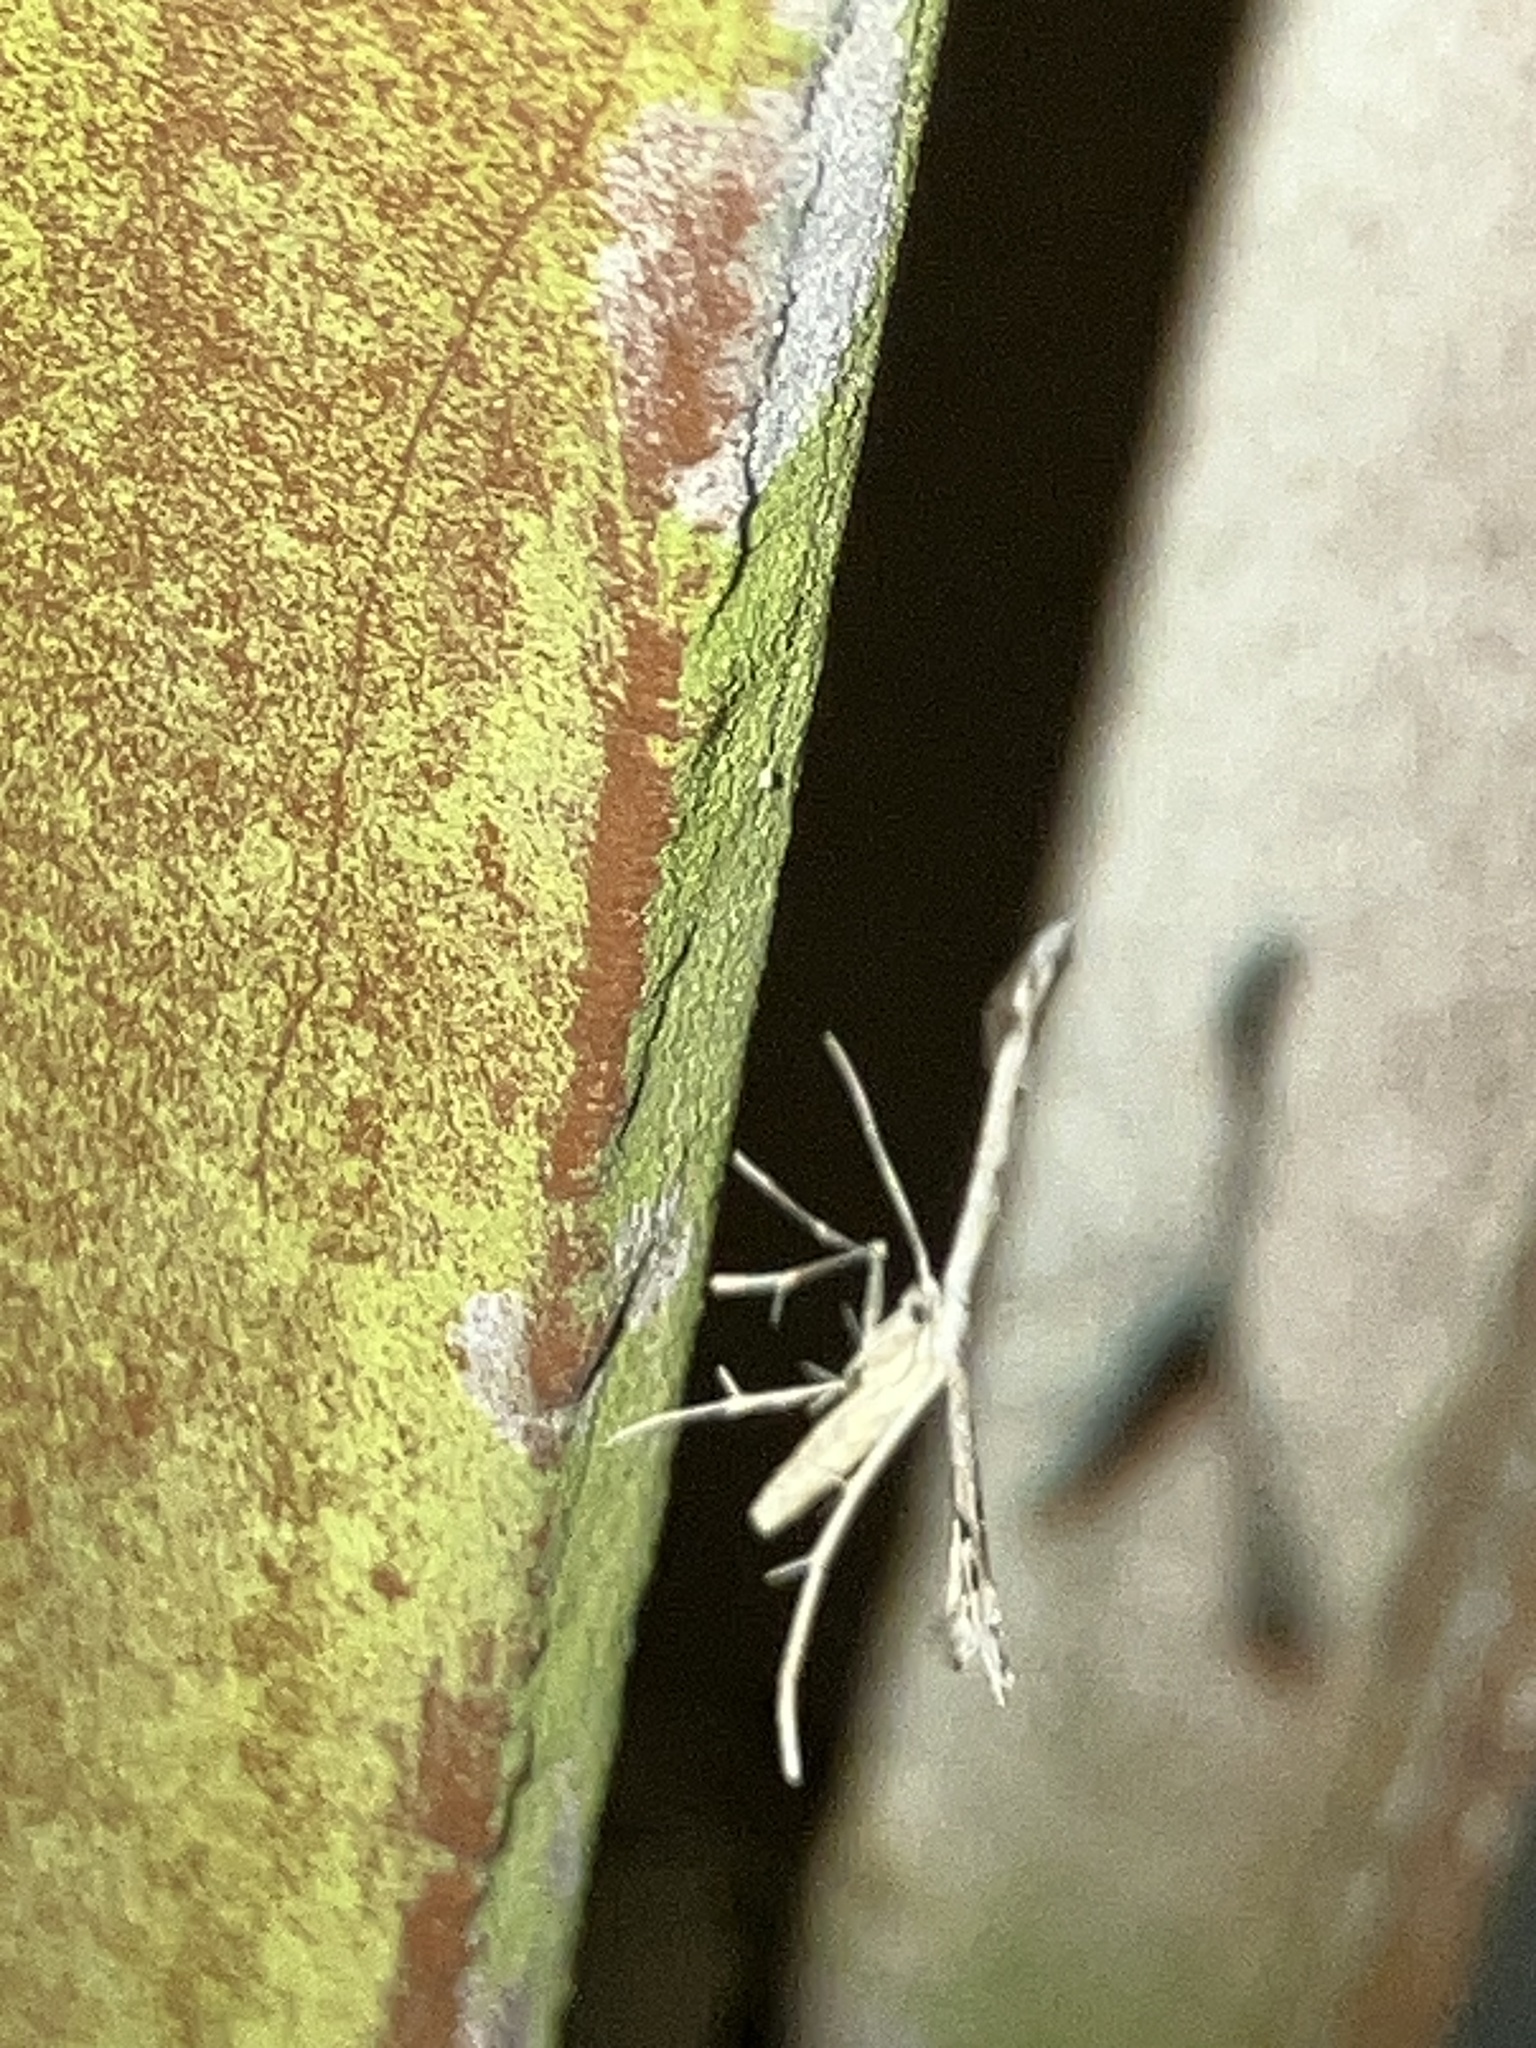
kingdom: Animalia
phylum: Arthropoda
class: Insecta
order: Lepidoptera
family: Pterophoridae
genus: Pselnophorus
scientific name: Pselnophorus belfragei
